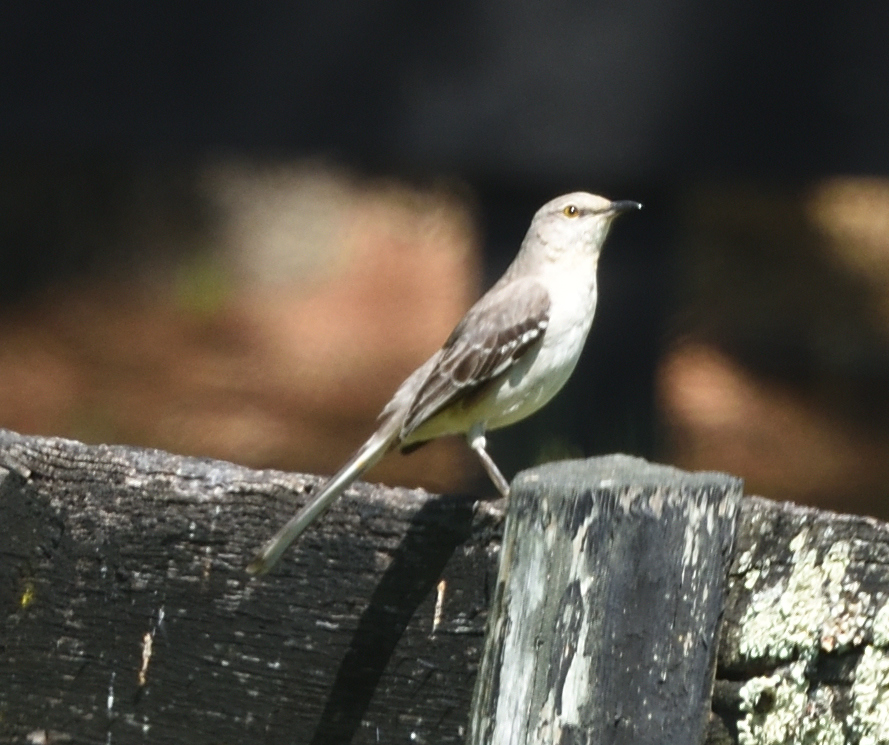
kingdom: Animalia
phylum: Chordata
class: Aves
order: Passeriformes
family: Mimidae
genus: Mimus
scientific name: Mimus polyglottos
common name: Northern mockingbird
